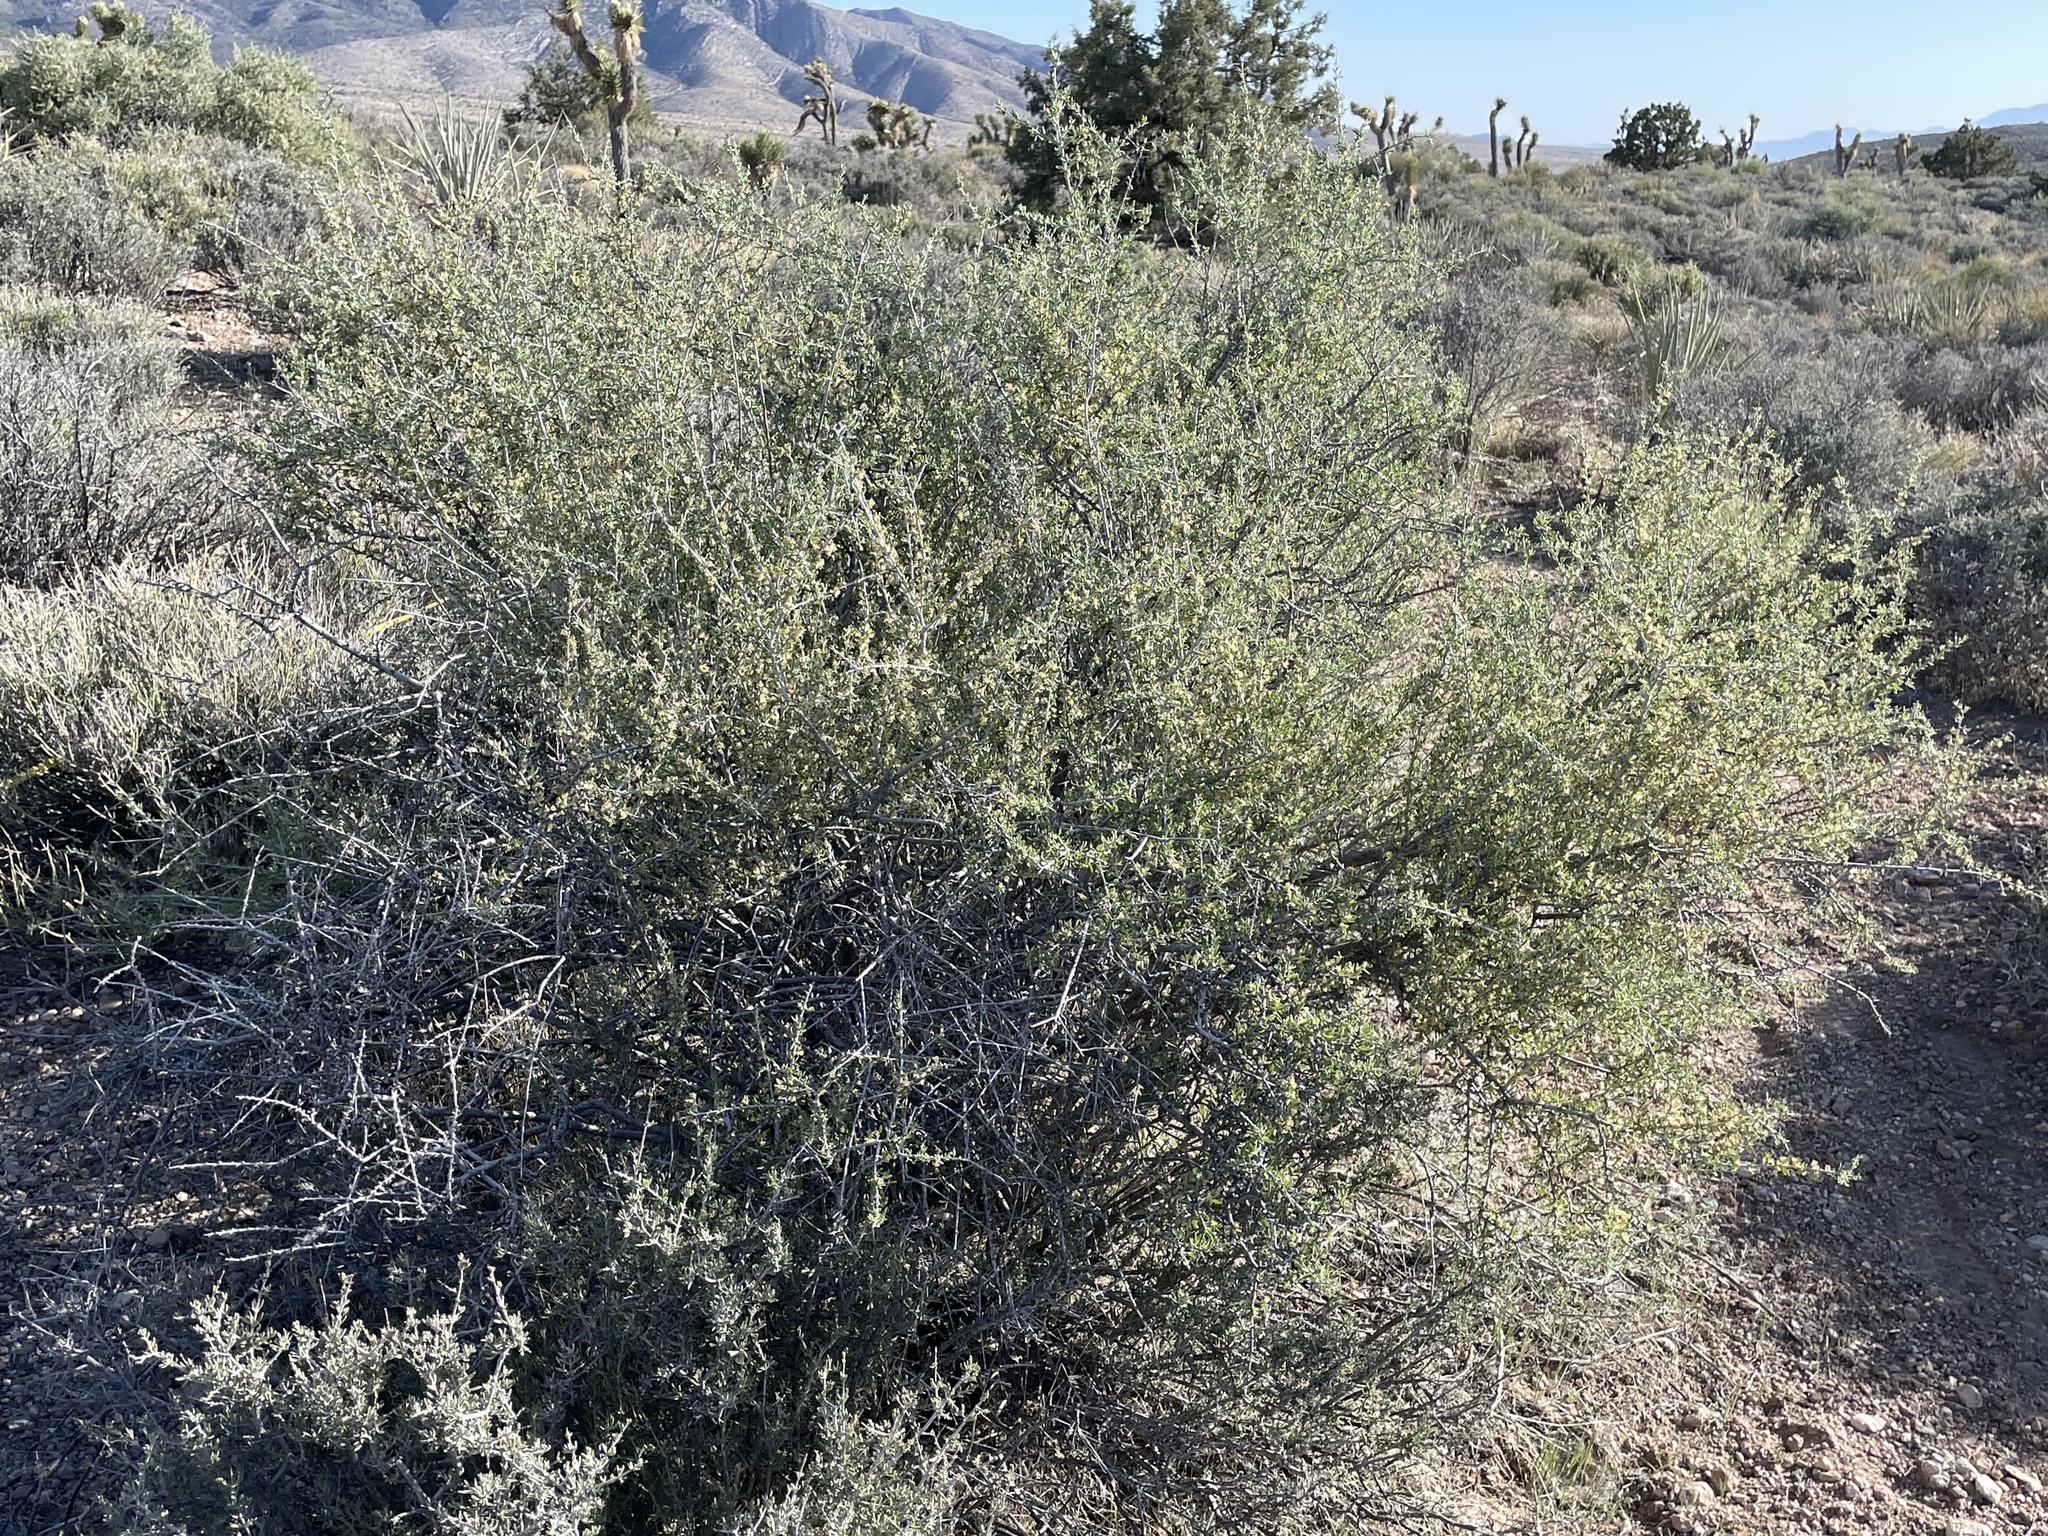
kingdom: Plantae
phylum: Tracheophyta
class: Magnoliopsida
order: Rosales
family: Rosaceae
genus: Prunus
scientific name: Prunus fasciculata
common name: Desert almond
